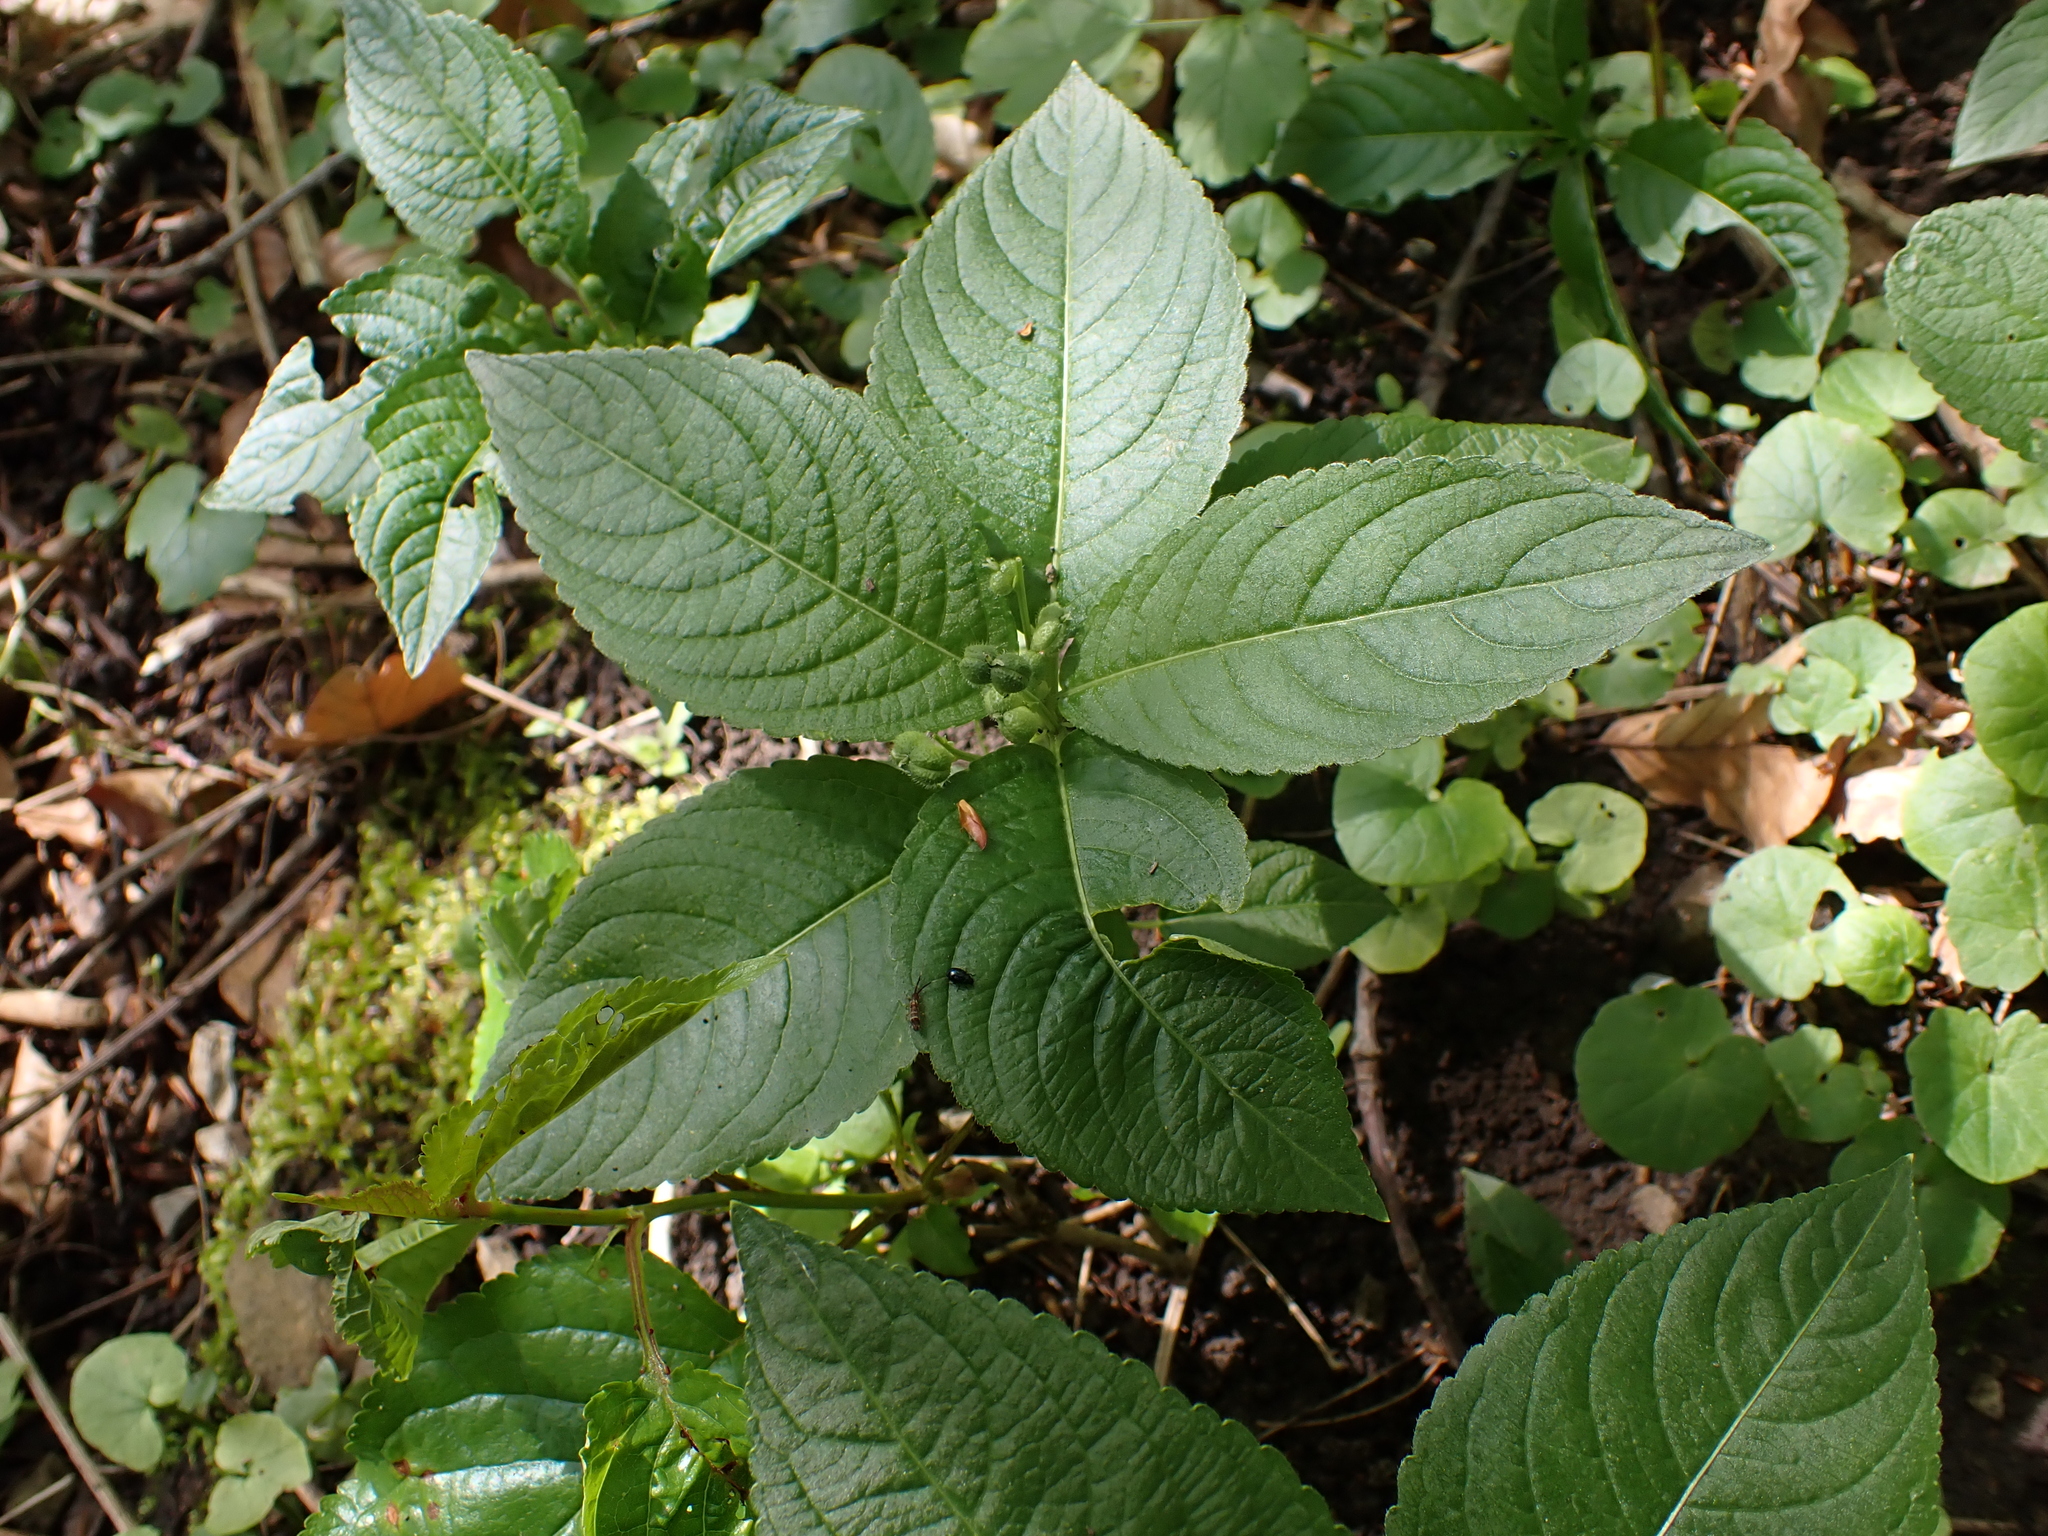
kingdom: Plantae
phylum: Tracheophyta
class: Magnoliopsida
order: Malpighiales
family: Euphorbiaceae
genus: Mercurialis
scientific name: Mercurialis perennis
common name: Dog mercury
